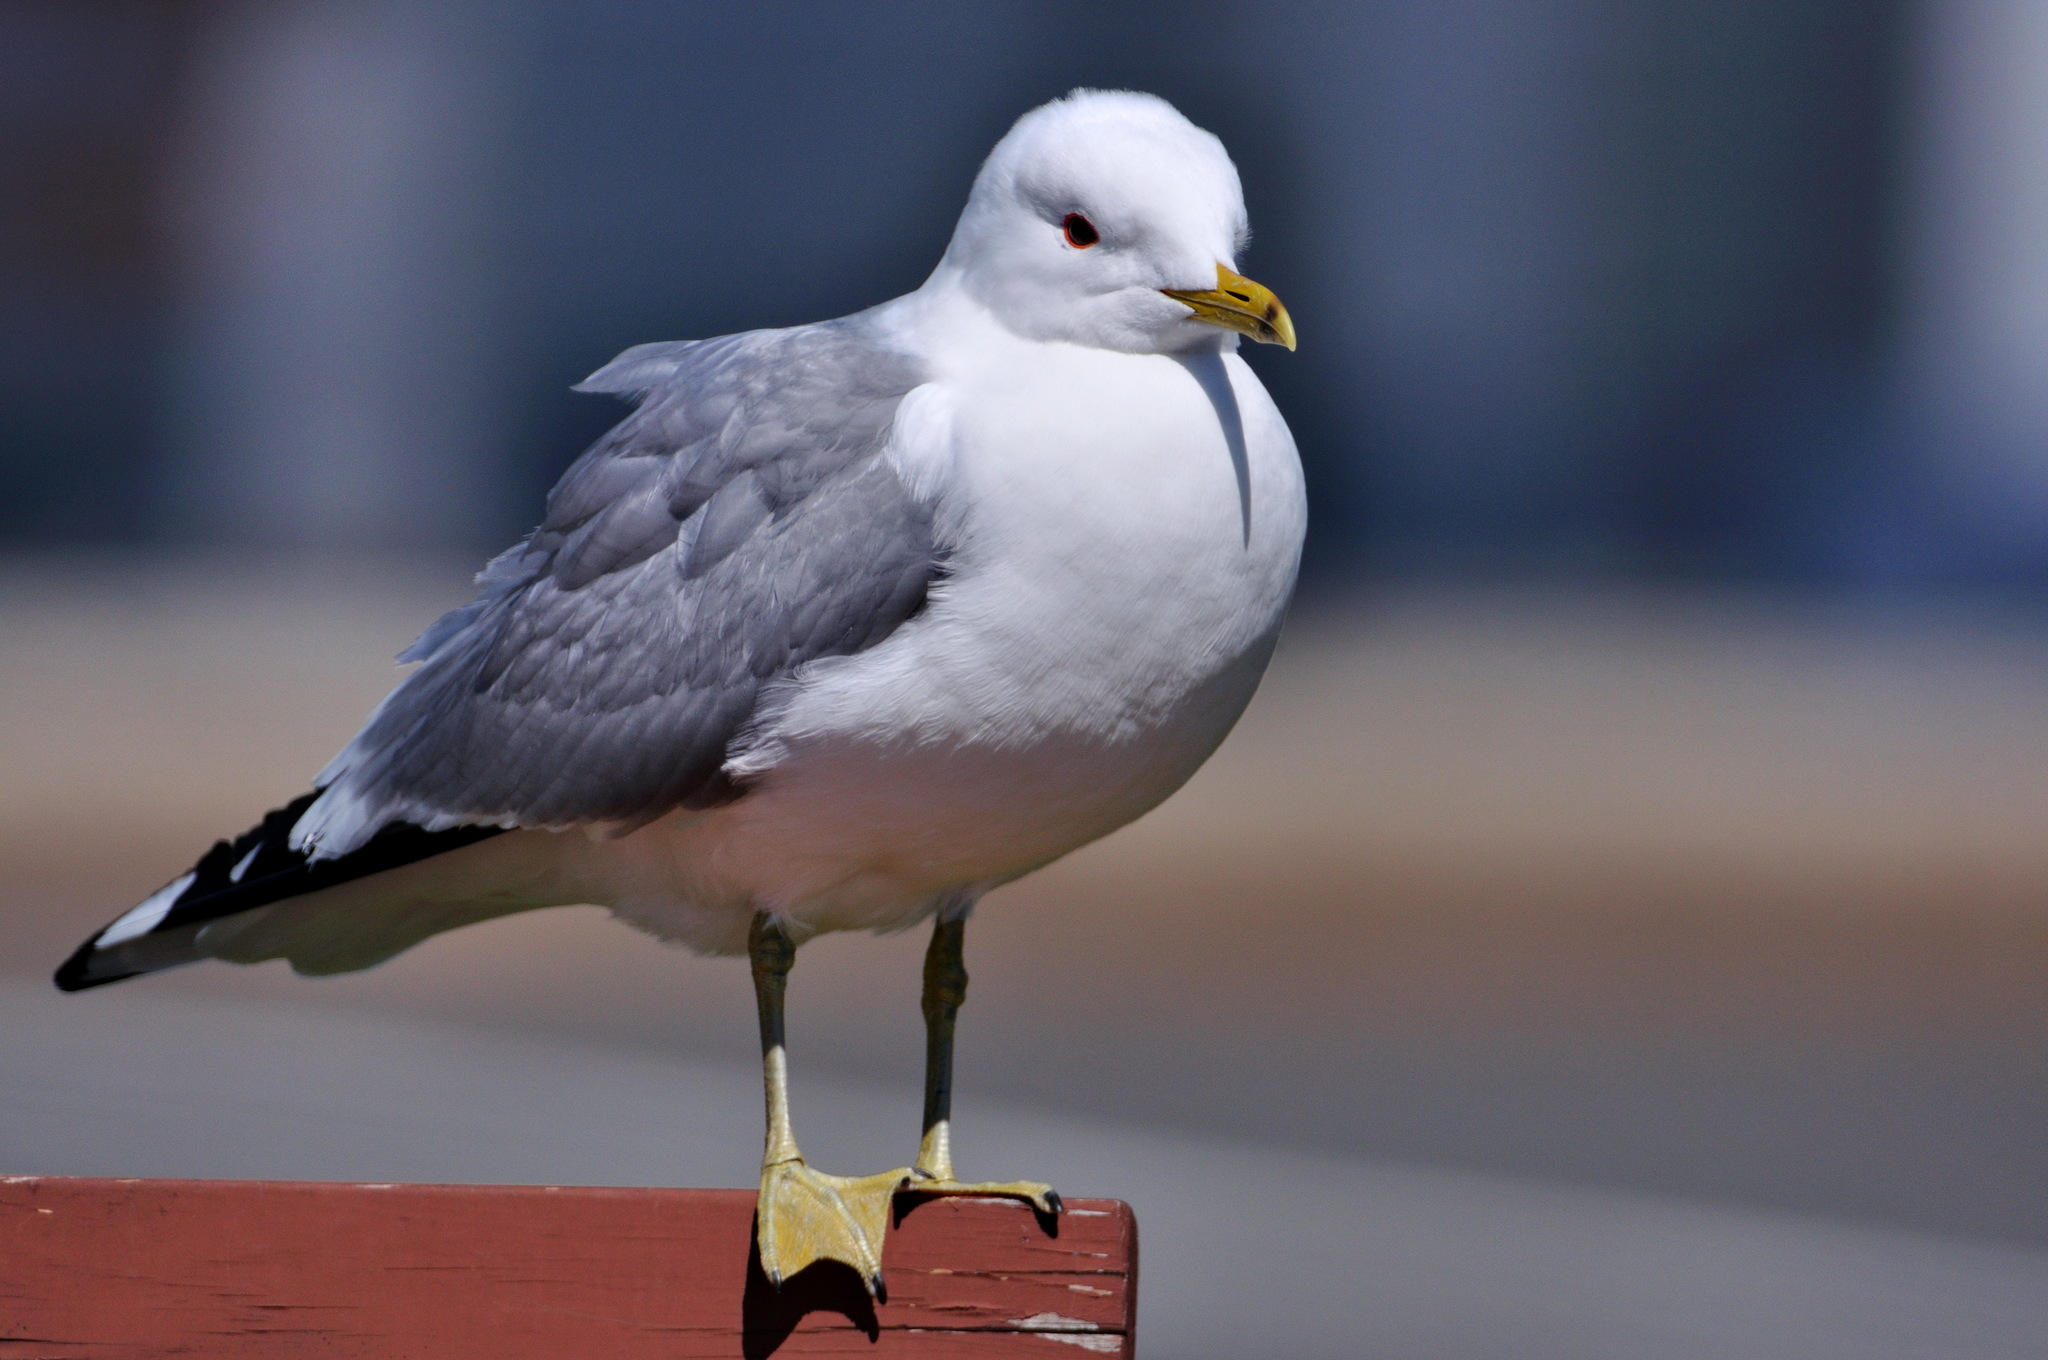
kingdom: Animalia
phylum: Chordata
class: Aves
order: Charadriiformes
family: Laridae
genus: Larus
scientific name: Larus canus
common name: Mew gull
